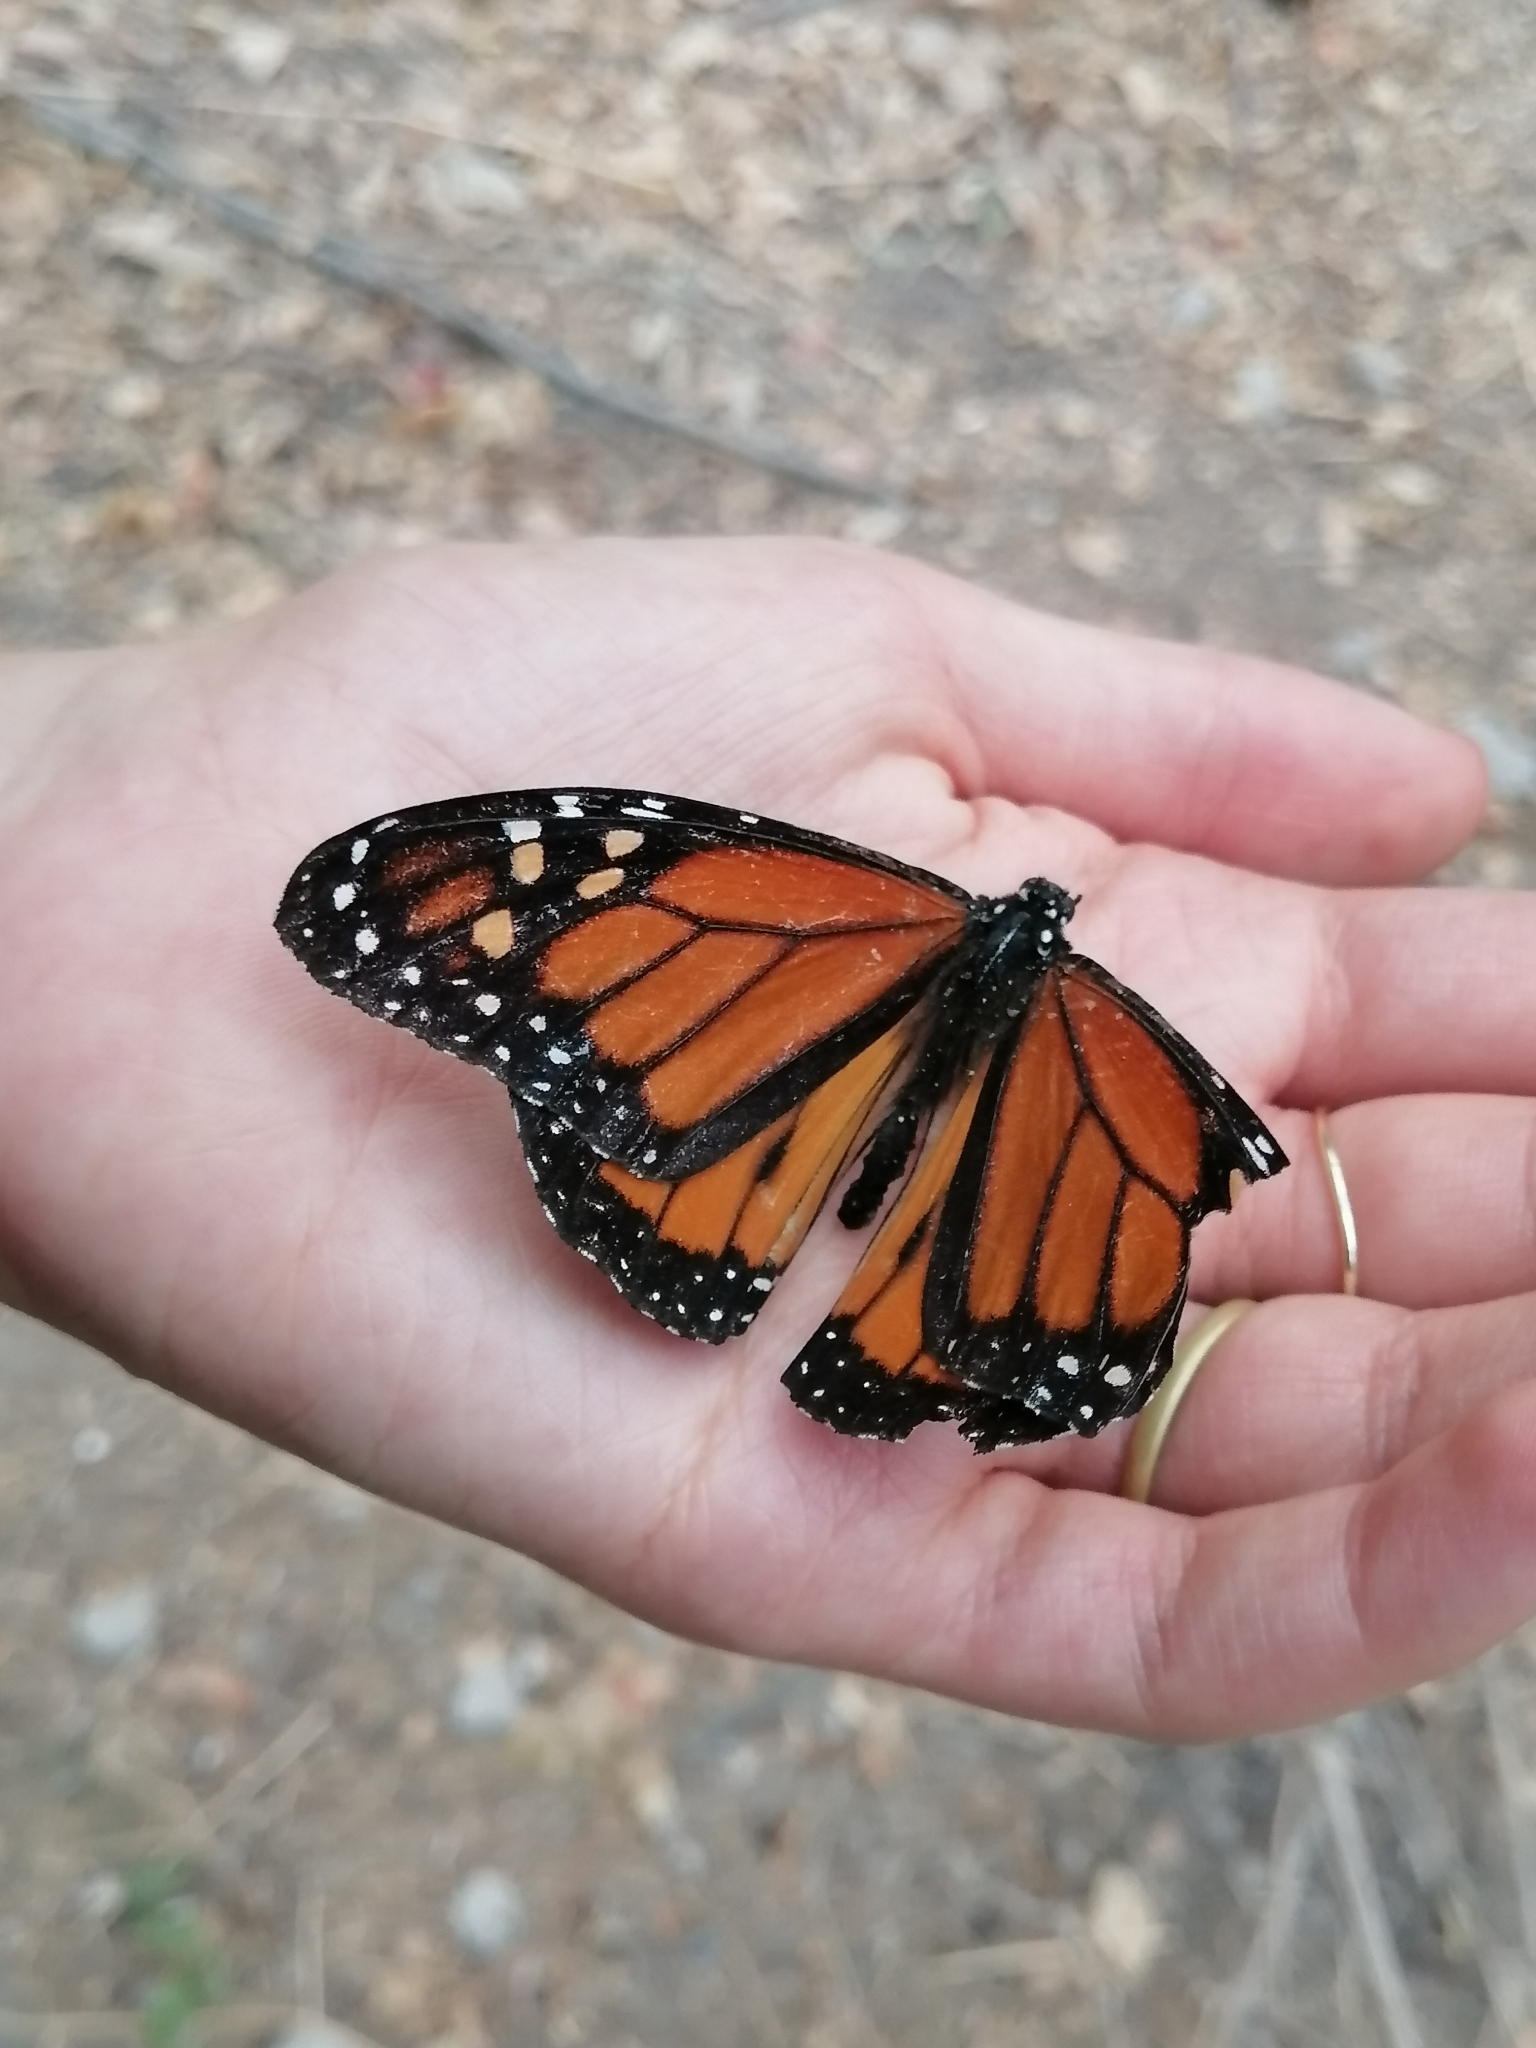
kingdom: Animalia
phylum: Arthropoda
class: Insecta
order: Lepidoptera
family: Nymphalidae
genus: Danaus
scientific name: Danaus plexippus
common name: Monarch
